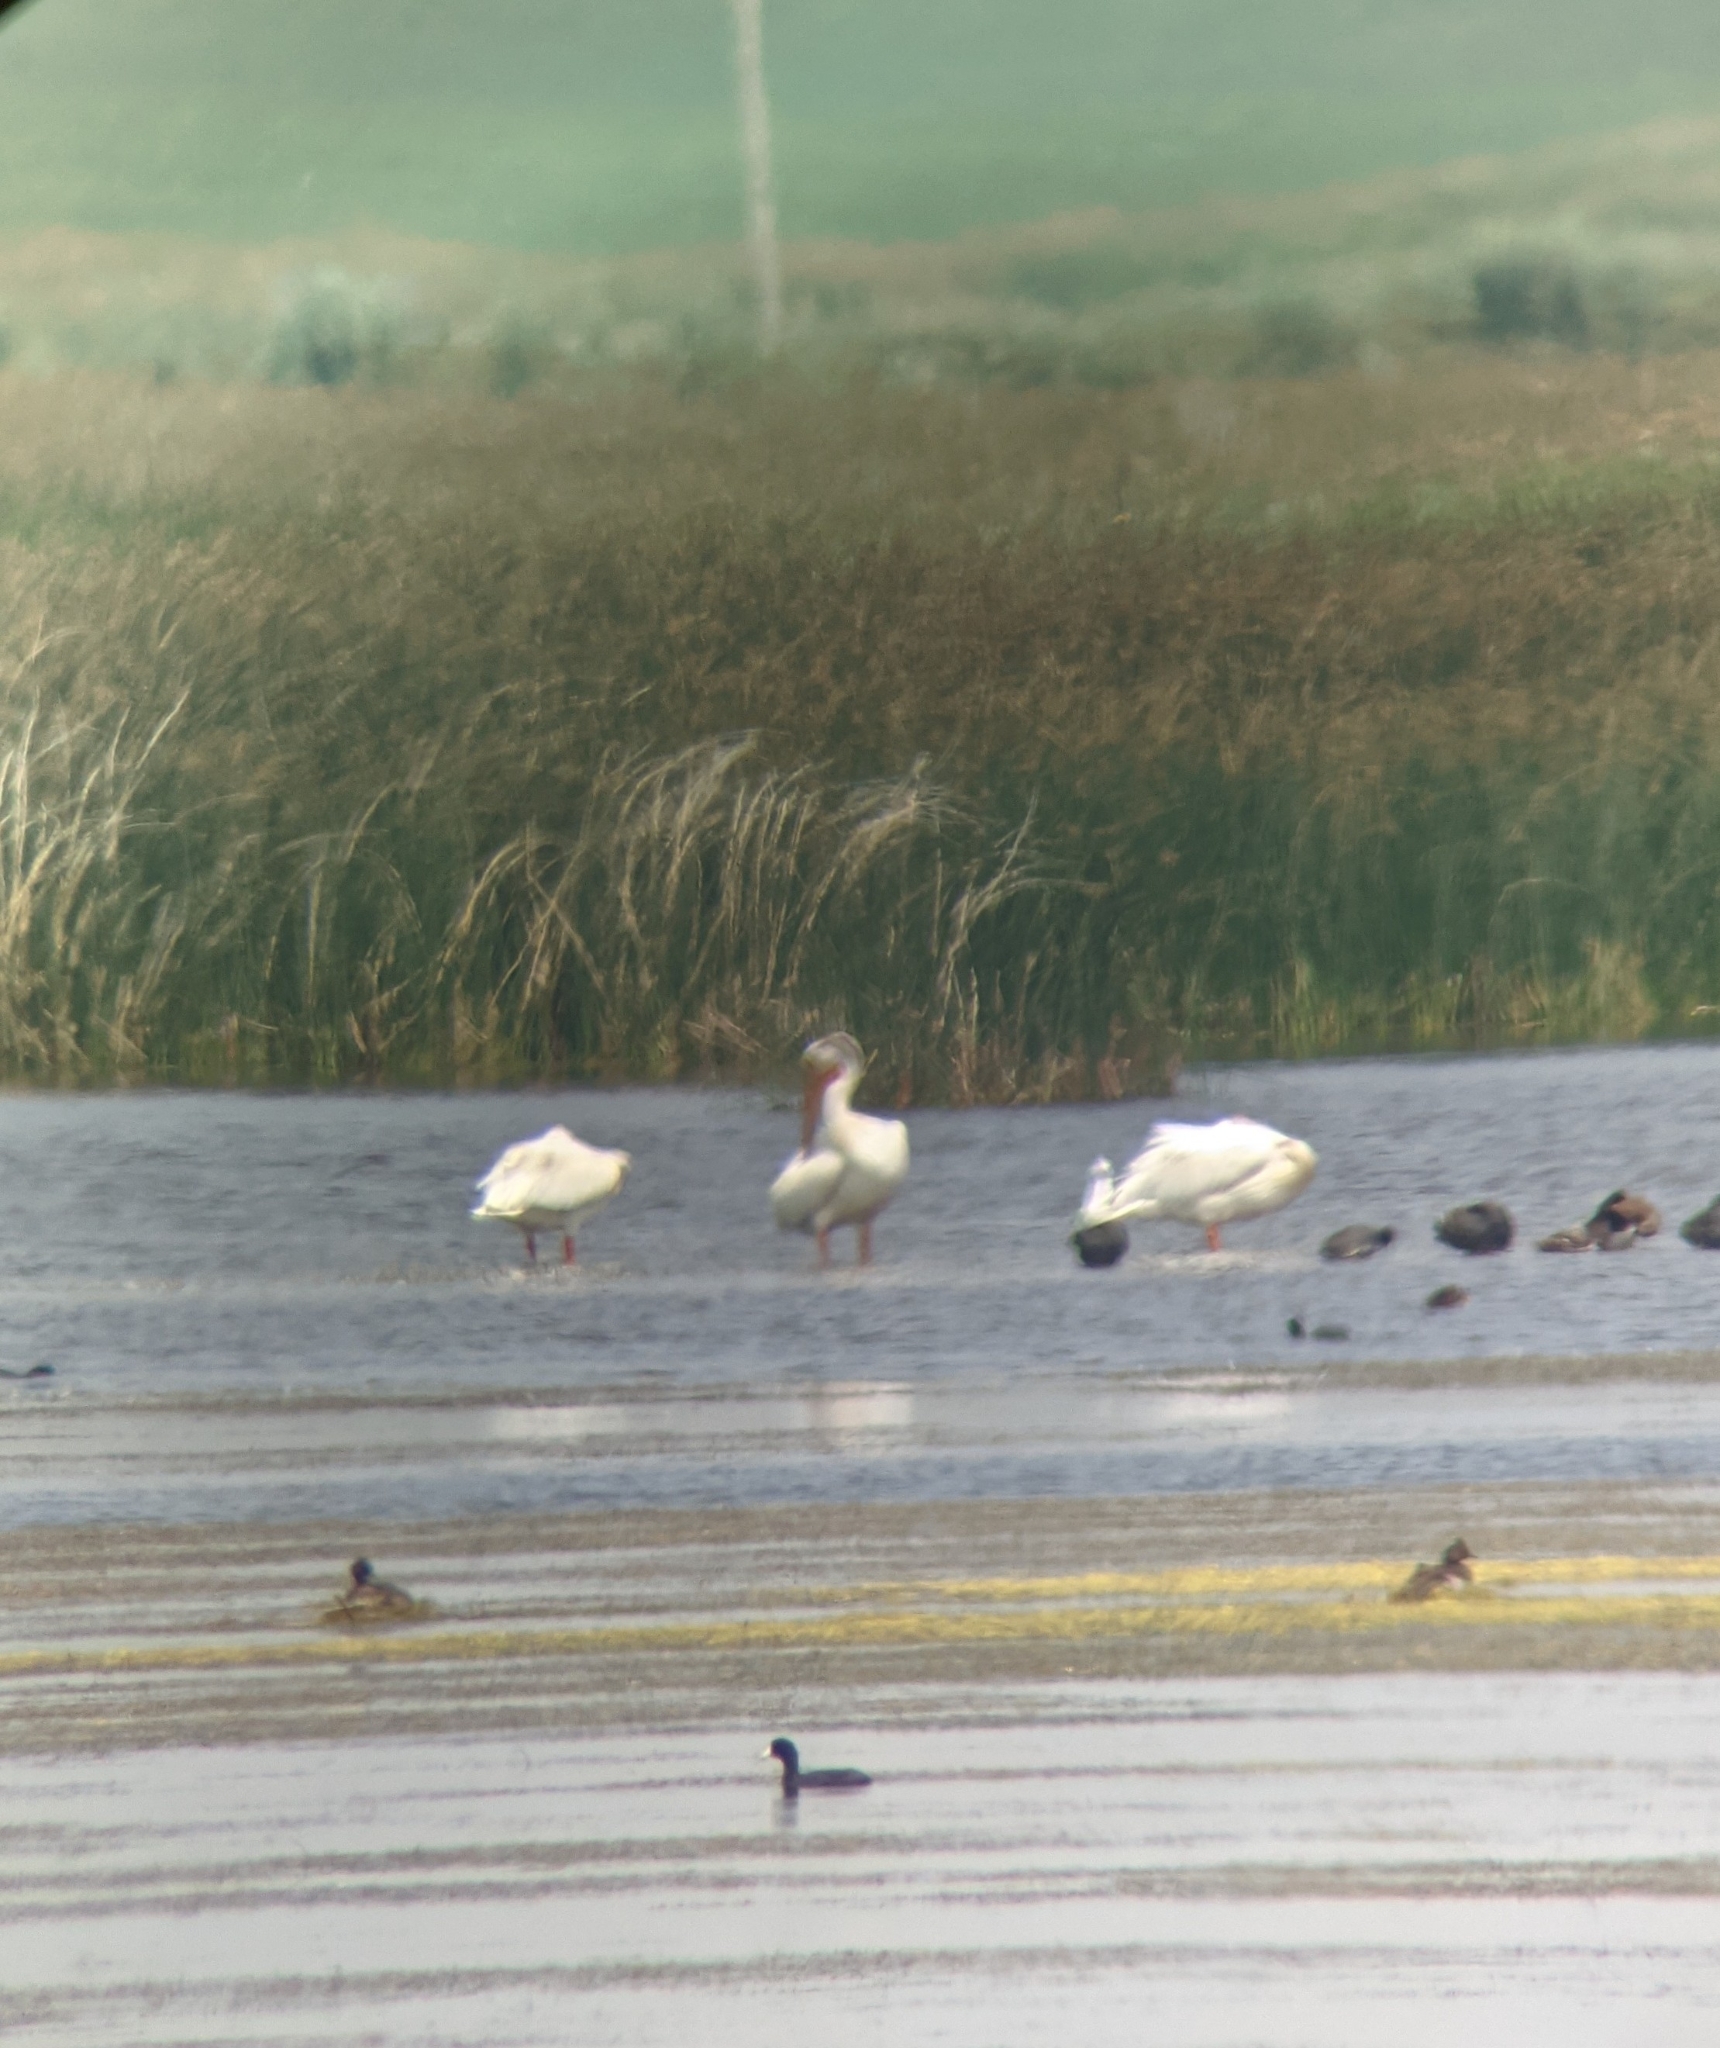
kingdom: Animalia
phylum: Chordata
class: Aves
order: Pelecaniformes
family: Pelecanidae
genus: Pelecanus
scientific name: Pelecanus erythrorhynchos
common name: American white pelican
